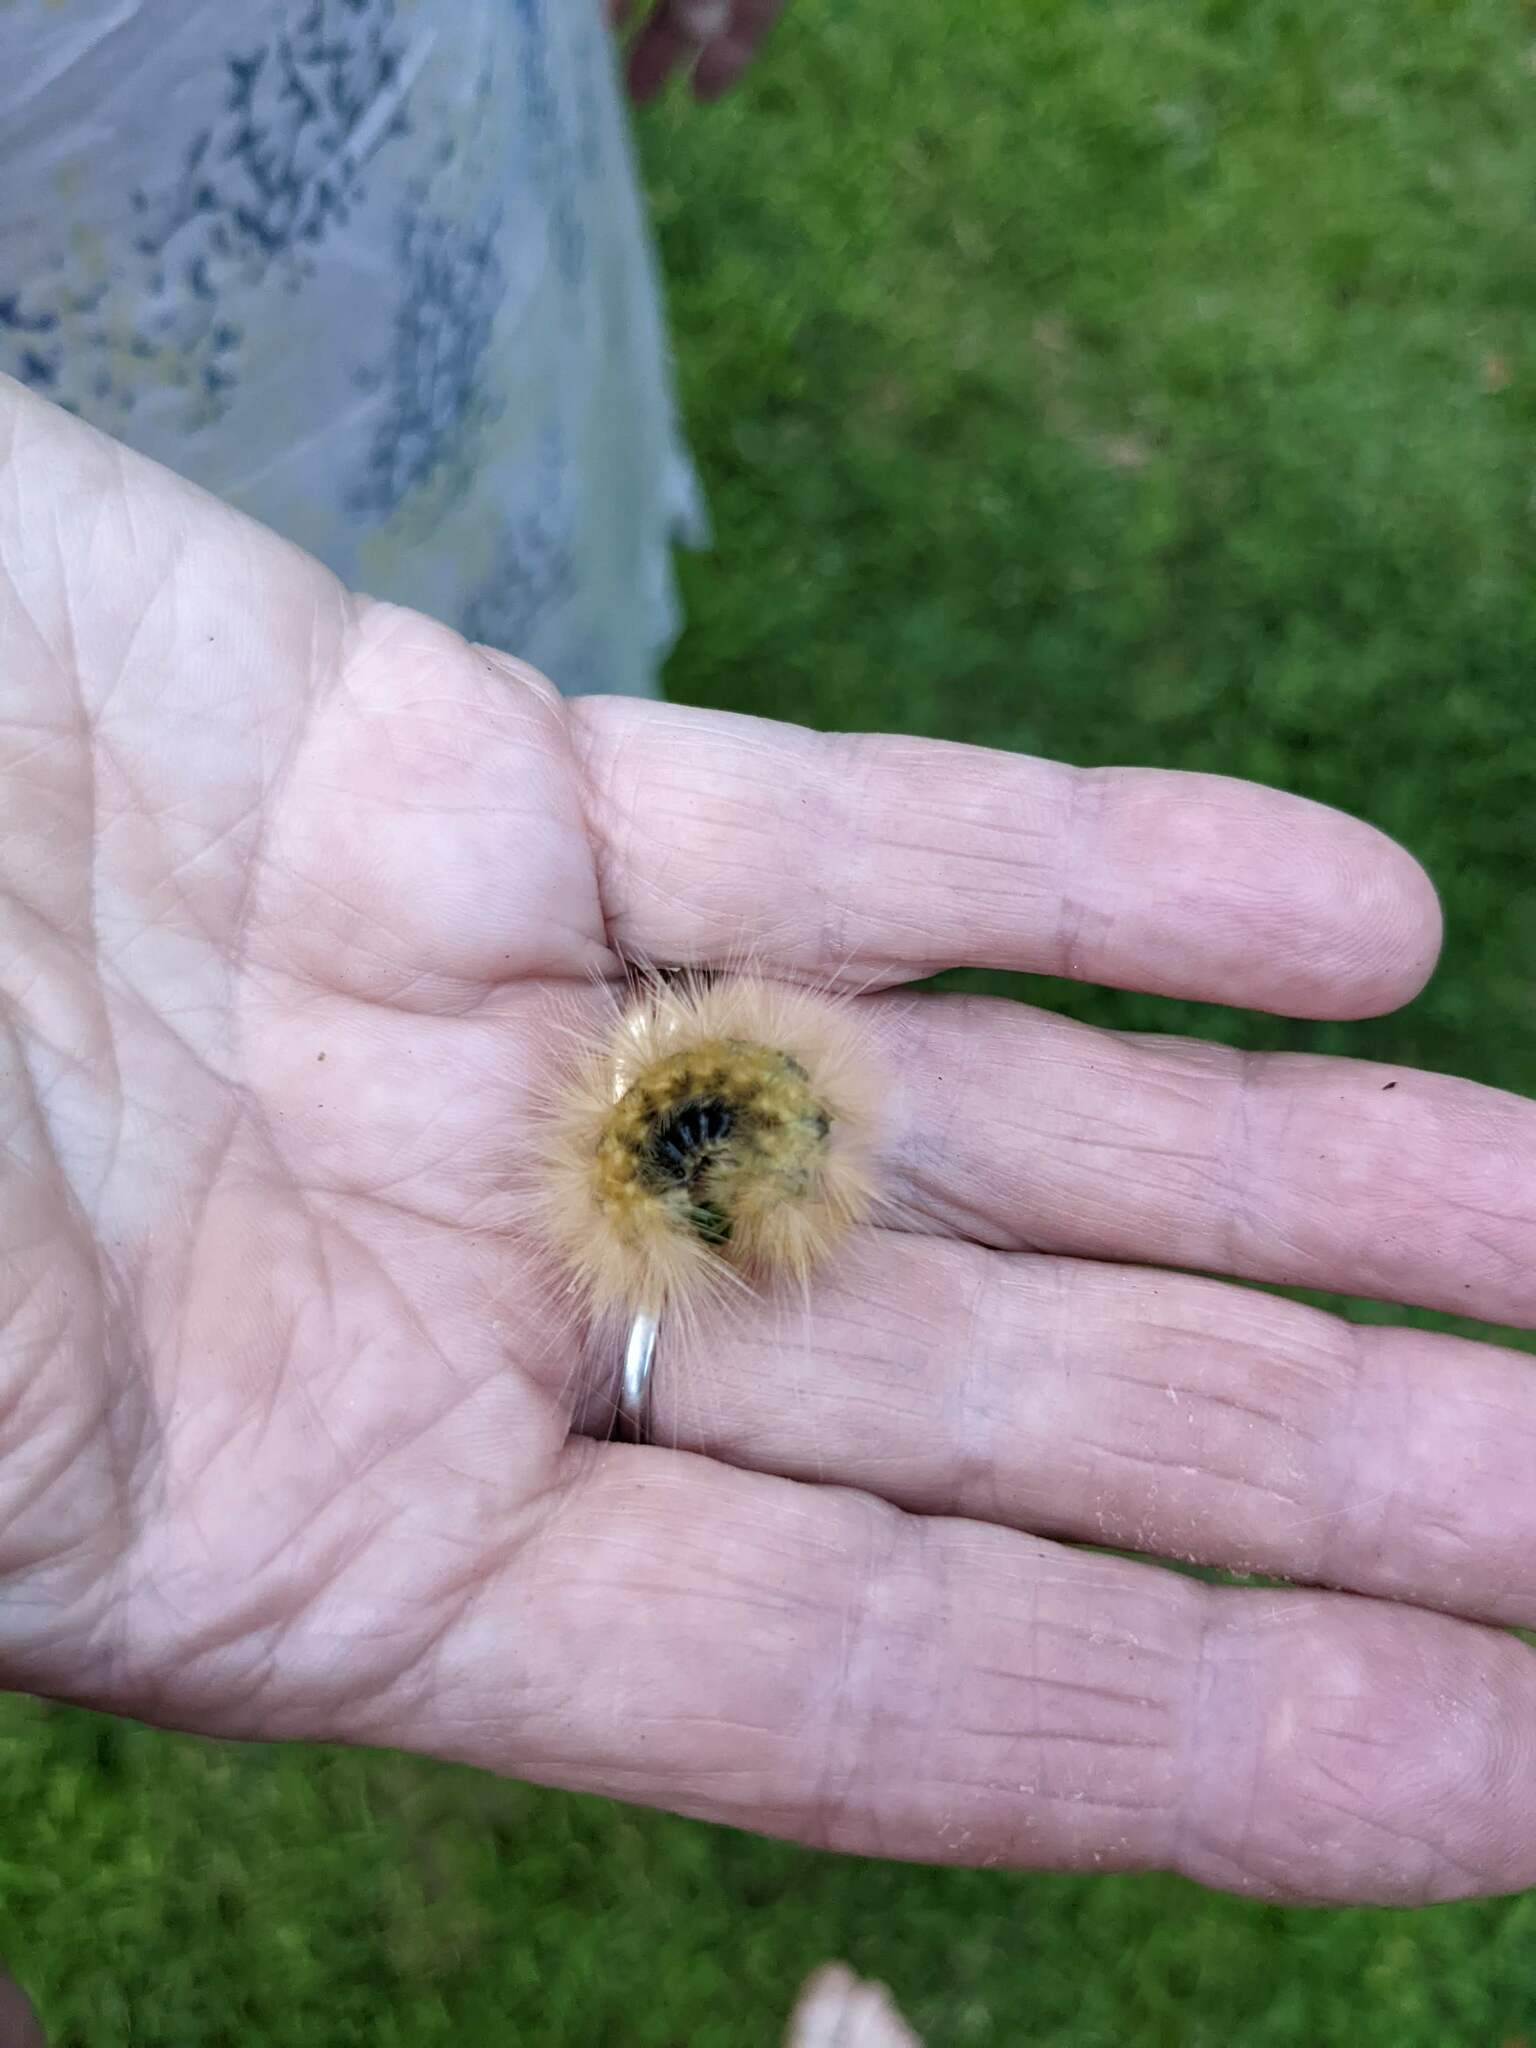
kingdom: Animalia
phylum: Arthropoda
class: Insecta
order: Lepidoptera
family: Erebidae
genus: Spilosoma
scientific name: Spilosoma virginica
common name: Virginia tiger moth
